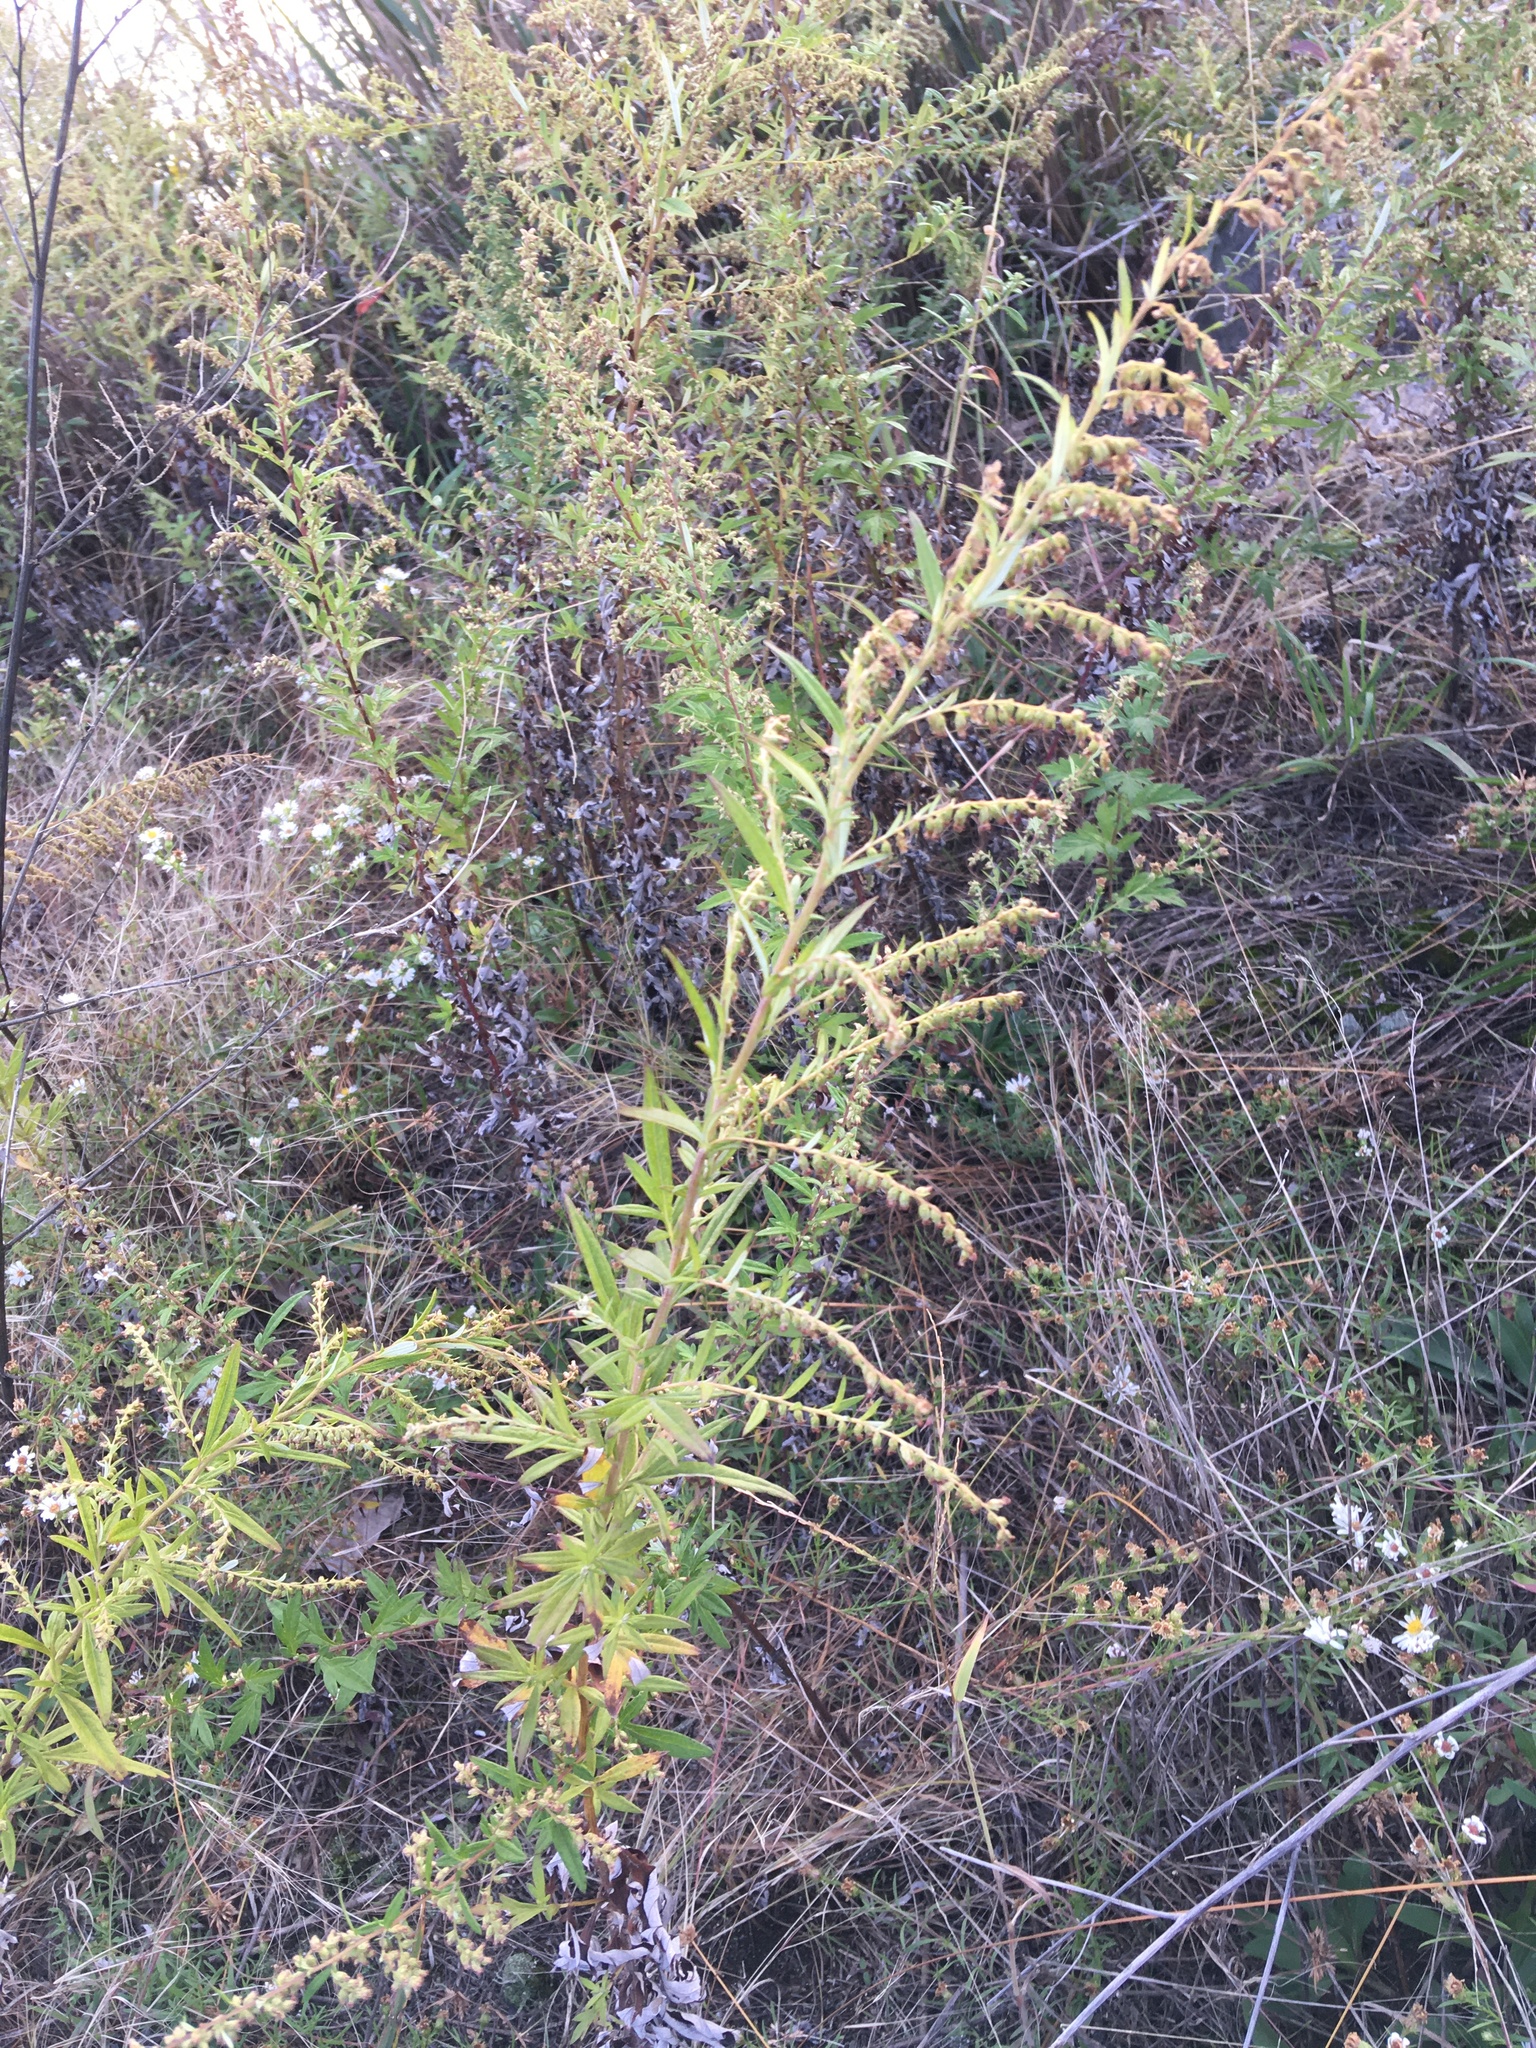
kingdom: Plantae
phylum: Tracheophyta
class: Magnoliopsida
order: Asterales
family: Asteraceae
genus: Artemisia
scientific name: Artemisia vulgaris
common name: Mugwort
